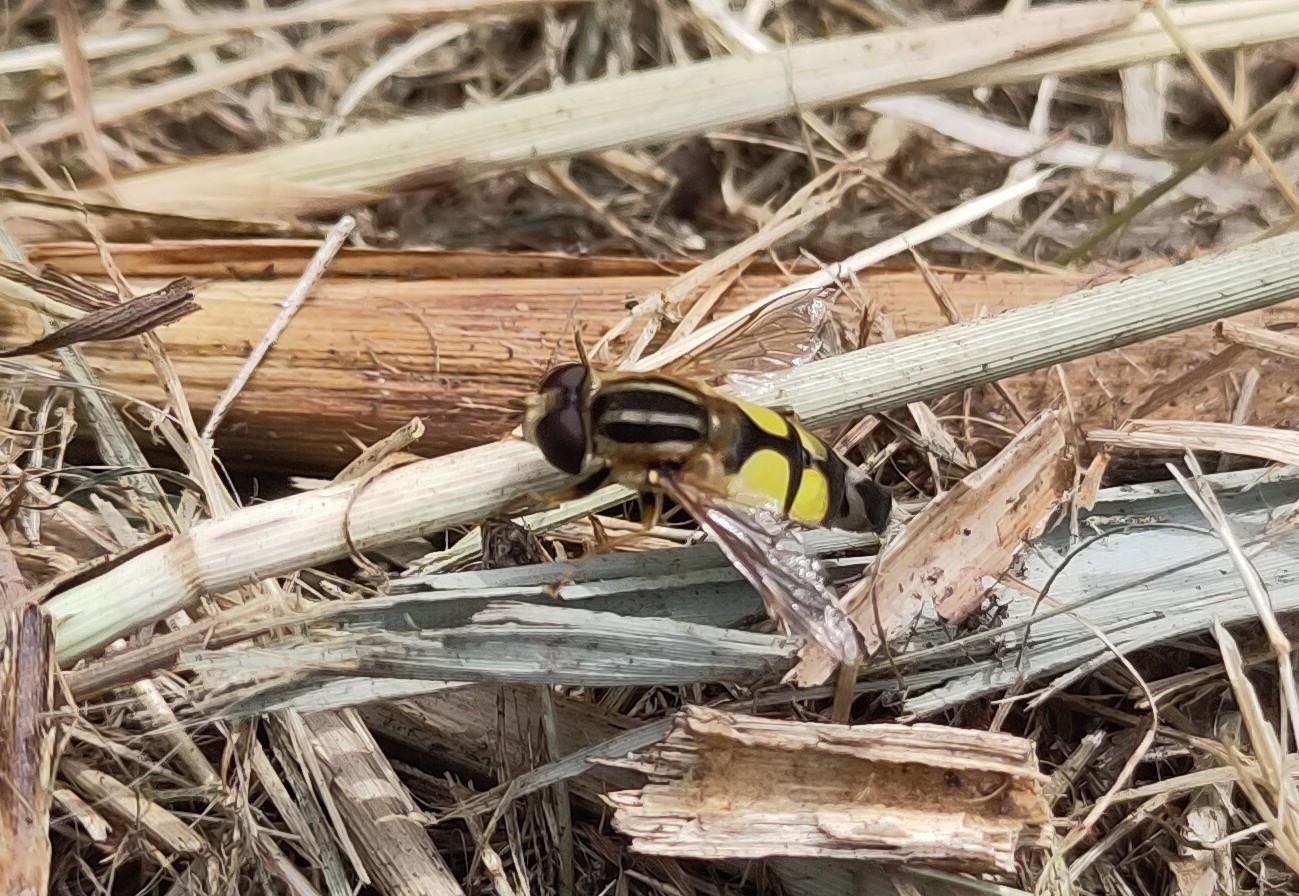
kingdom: Animalia
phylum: Arthropoda
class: Insecta
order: Diptera
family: Syrphidae
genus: Helophilus
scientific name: Helophilus trivittatus
